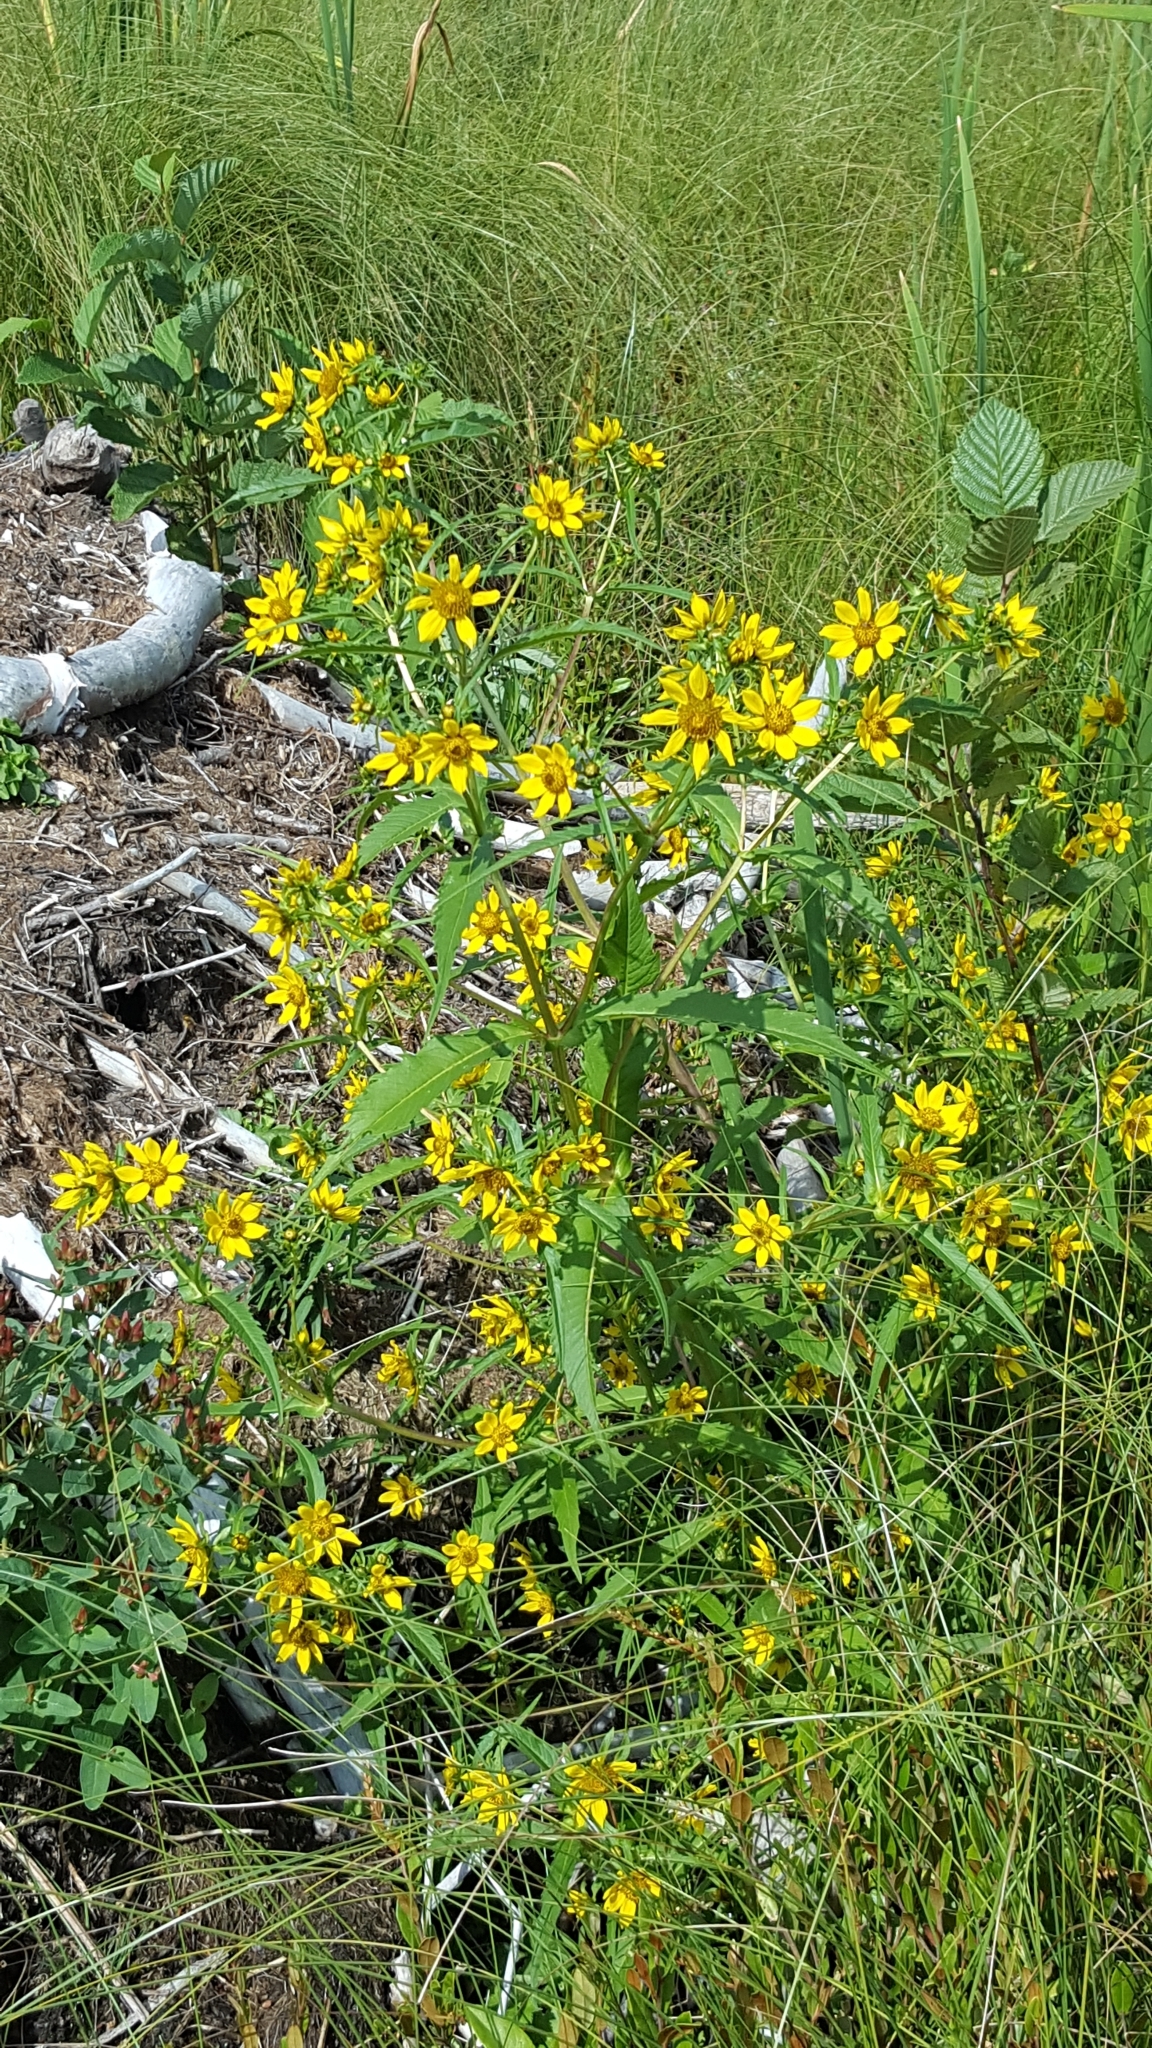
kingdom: Plantae
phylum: Tracheophyta
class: Magnoliopsida
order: Asterales
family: Asteraceae
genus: Bidens
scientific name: Bidens cernua
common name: Nodding bur-marigold
